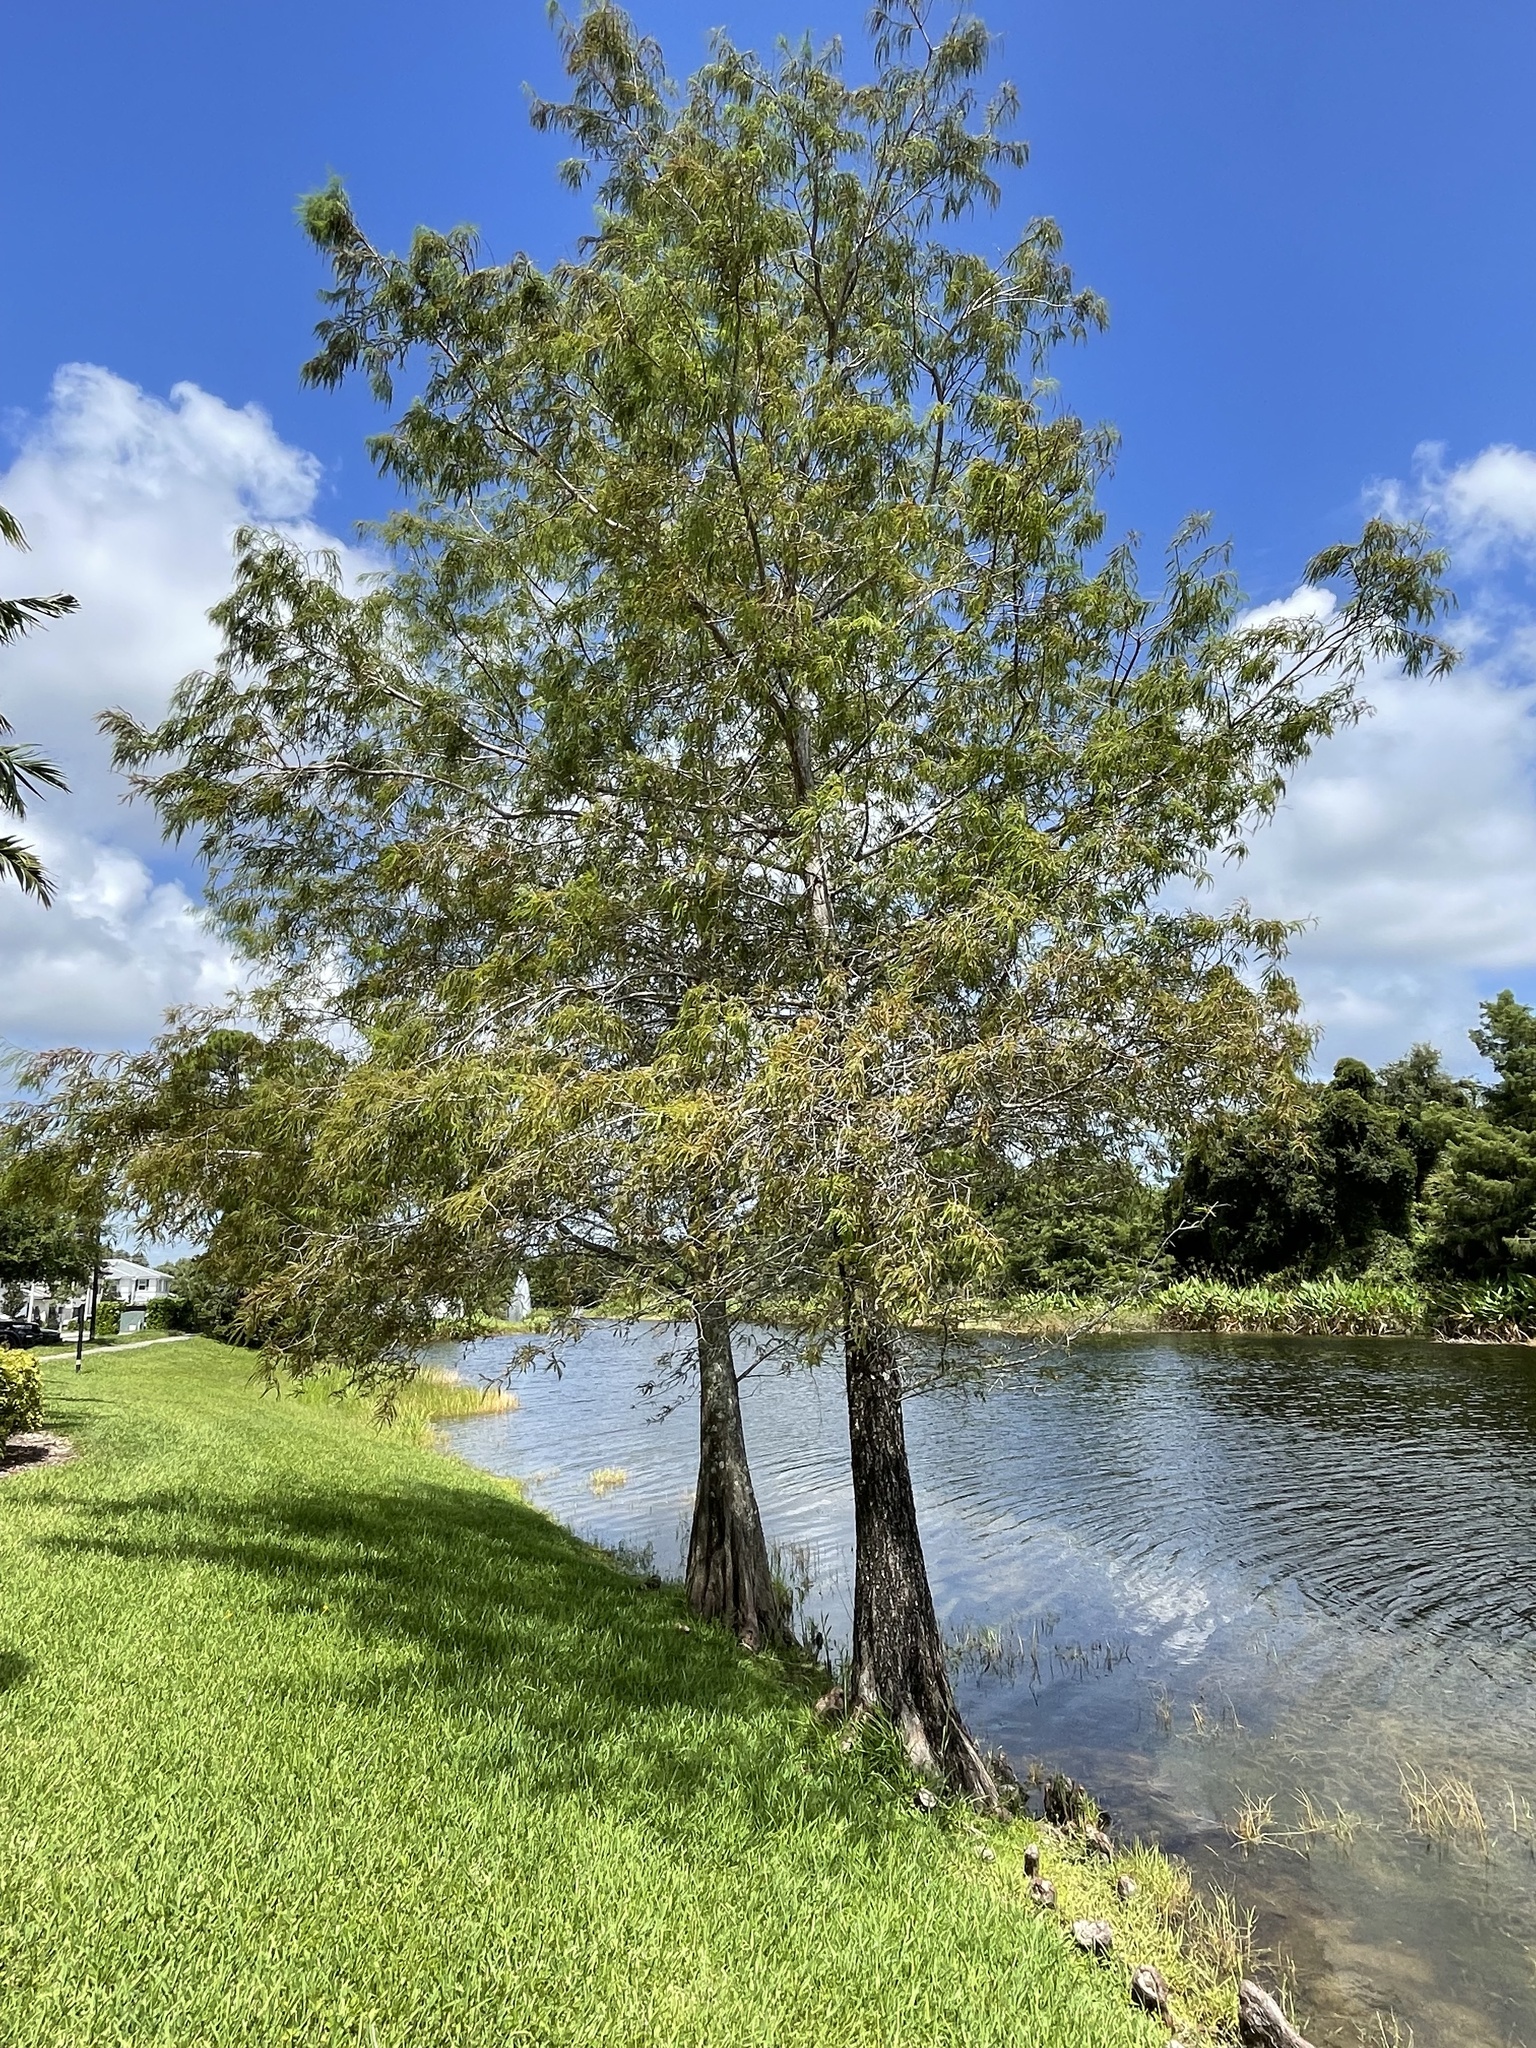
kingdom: Plantae
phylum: Tracheophyta
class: Pinopsida
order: Pinales
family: Cupressaceae
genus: Taxodium
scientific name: Taxodium distichum
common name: Bald cypress
